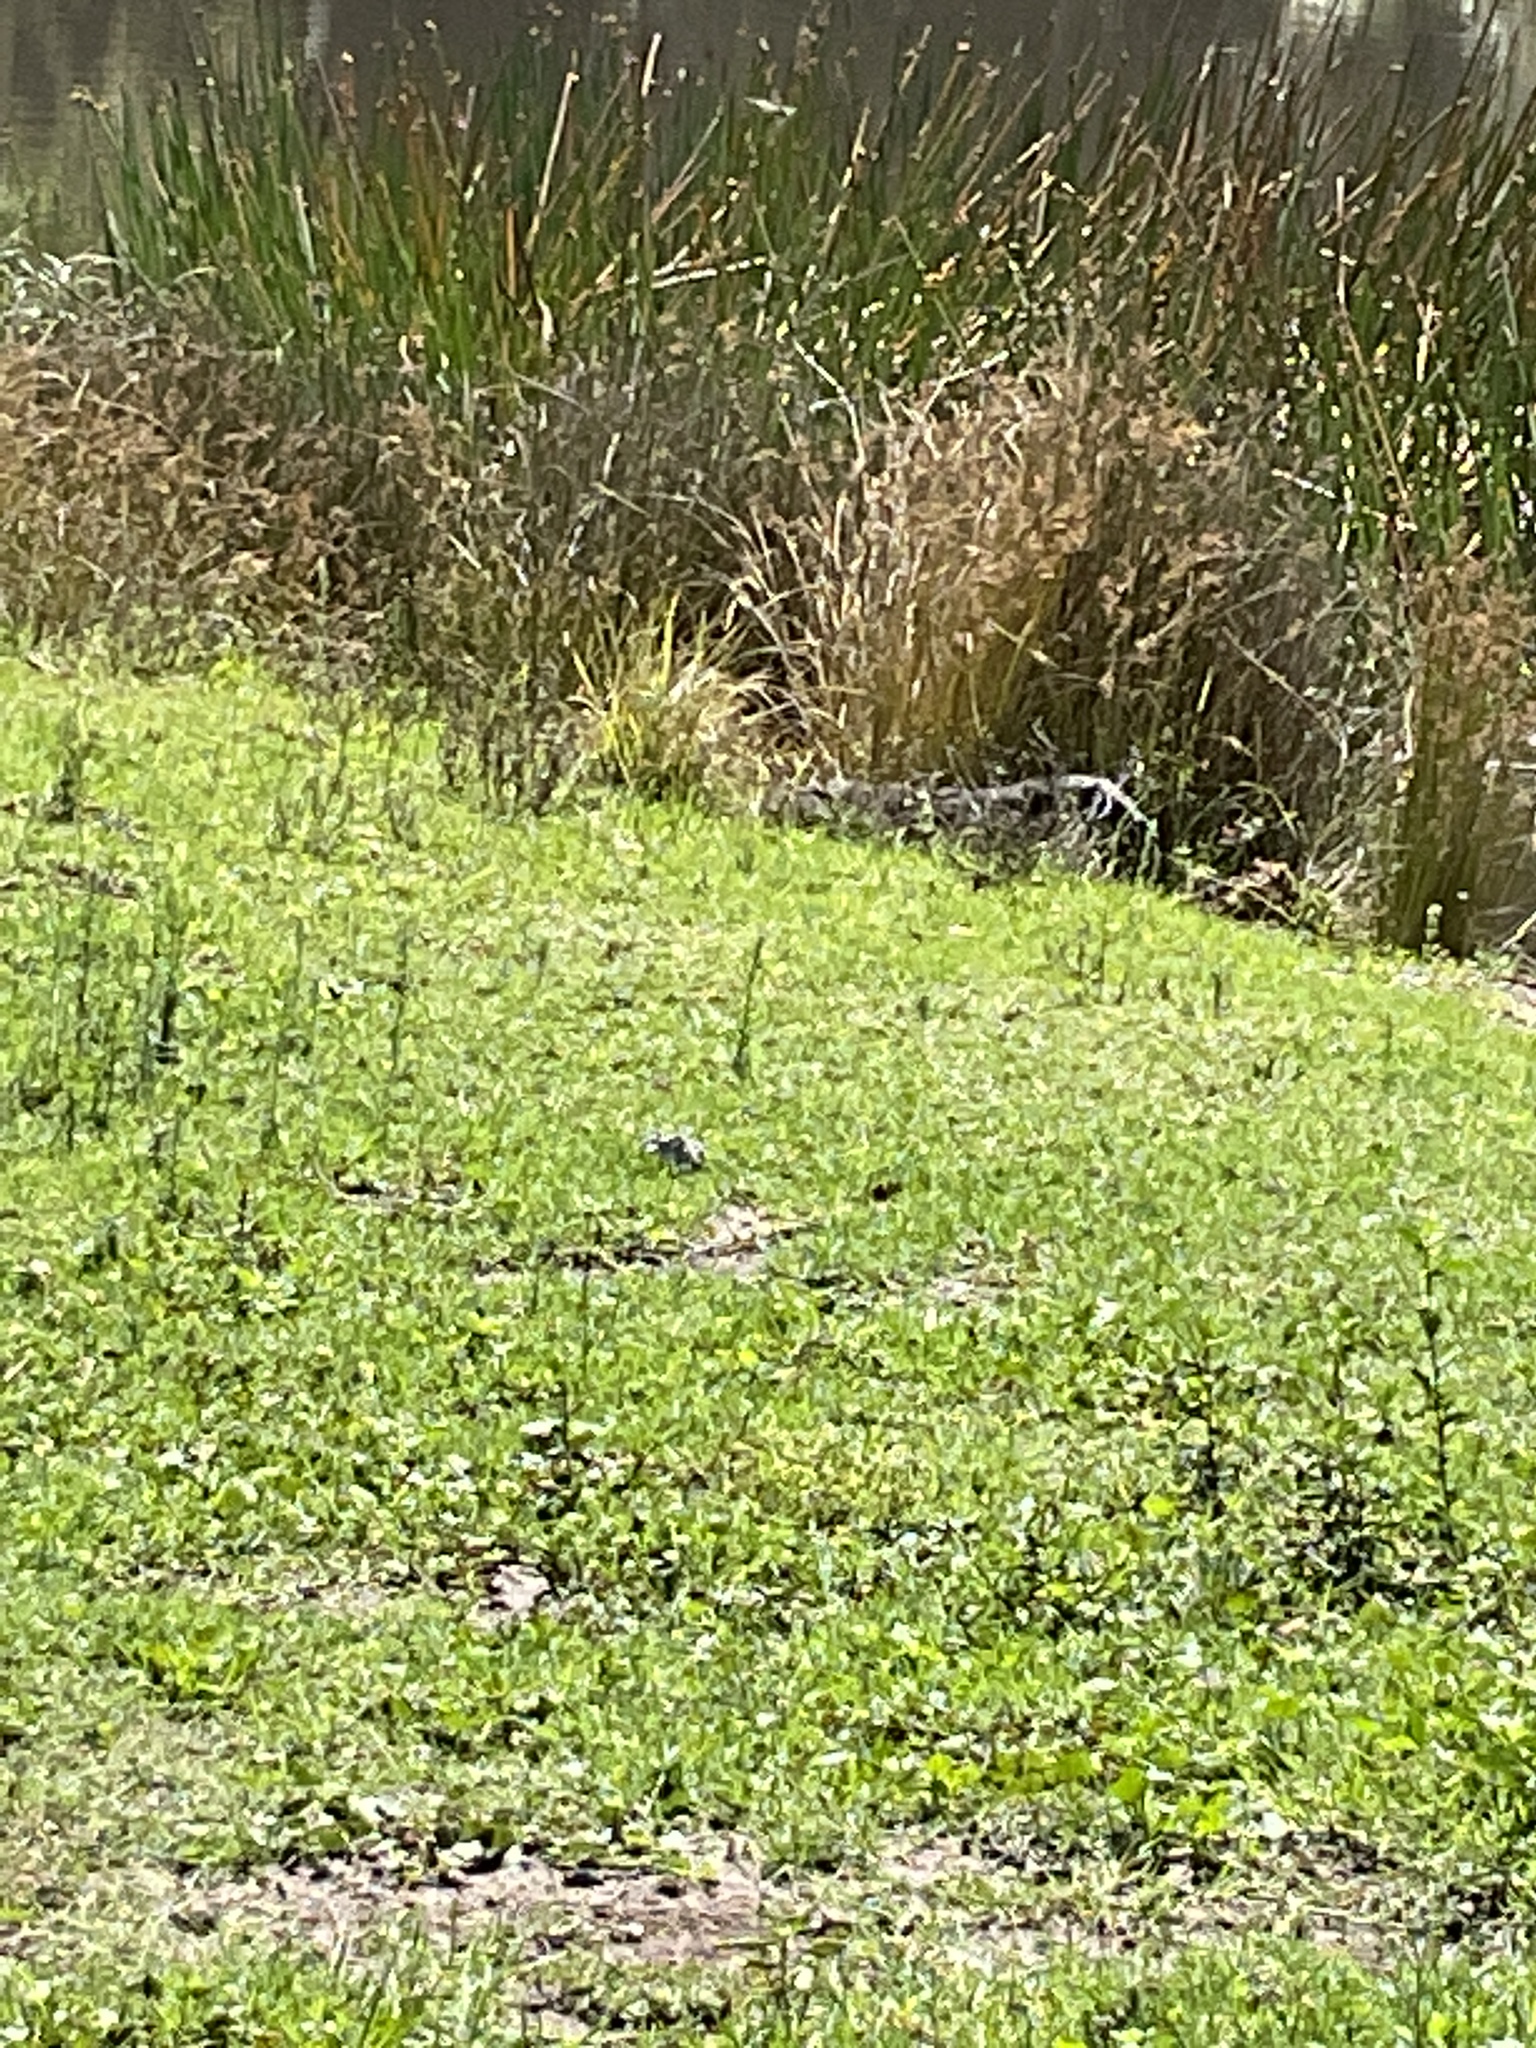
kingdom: Animalia
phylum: Chordata
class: Squamata
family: Varanidae
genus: Varanus
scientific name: Varanus varius
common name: Lace monitor
